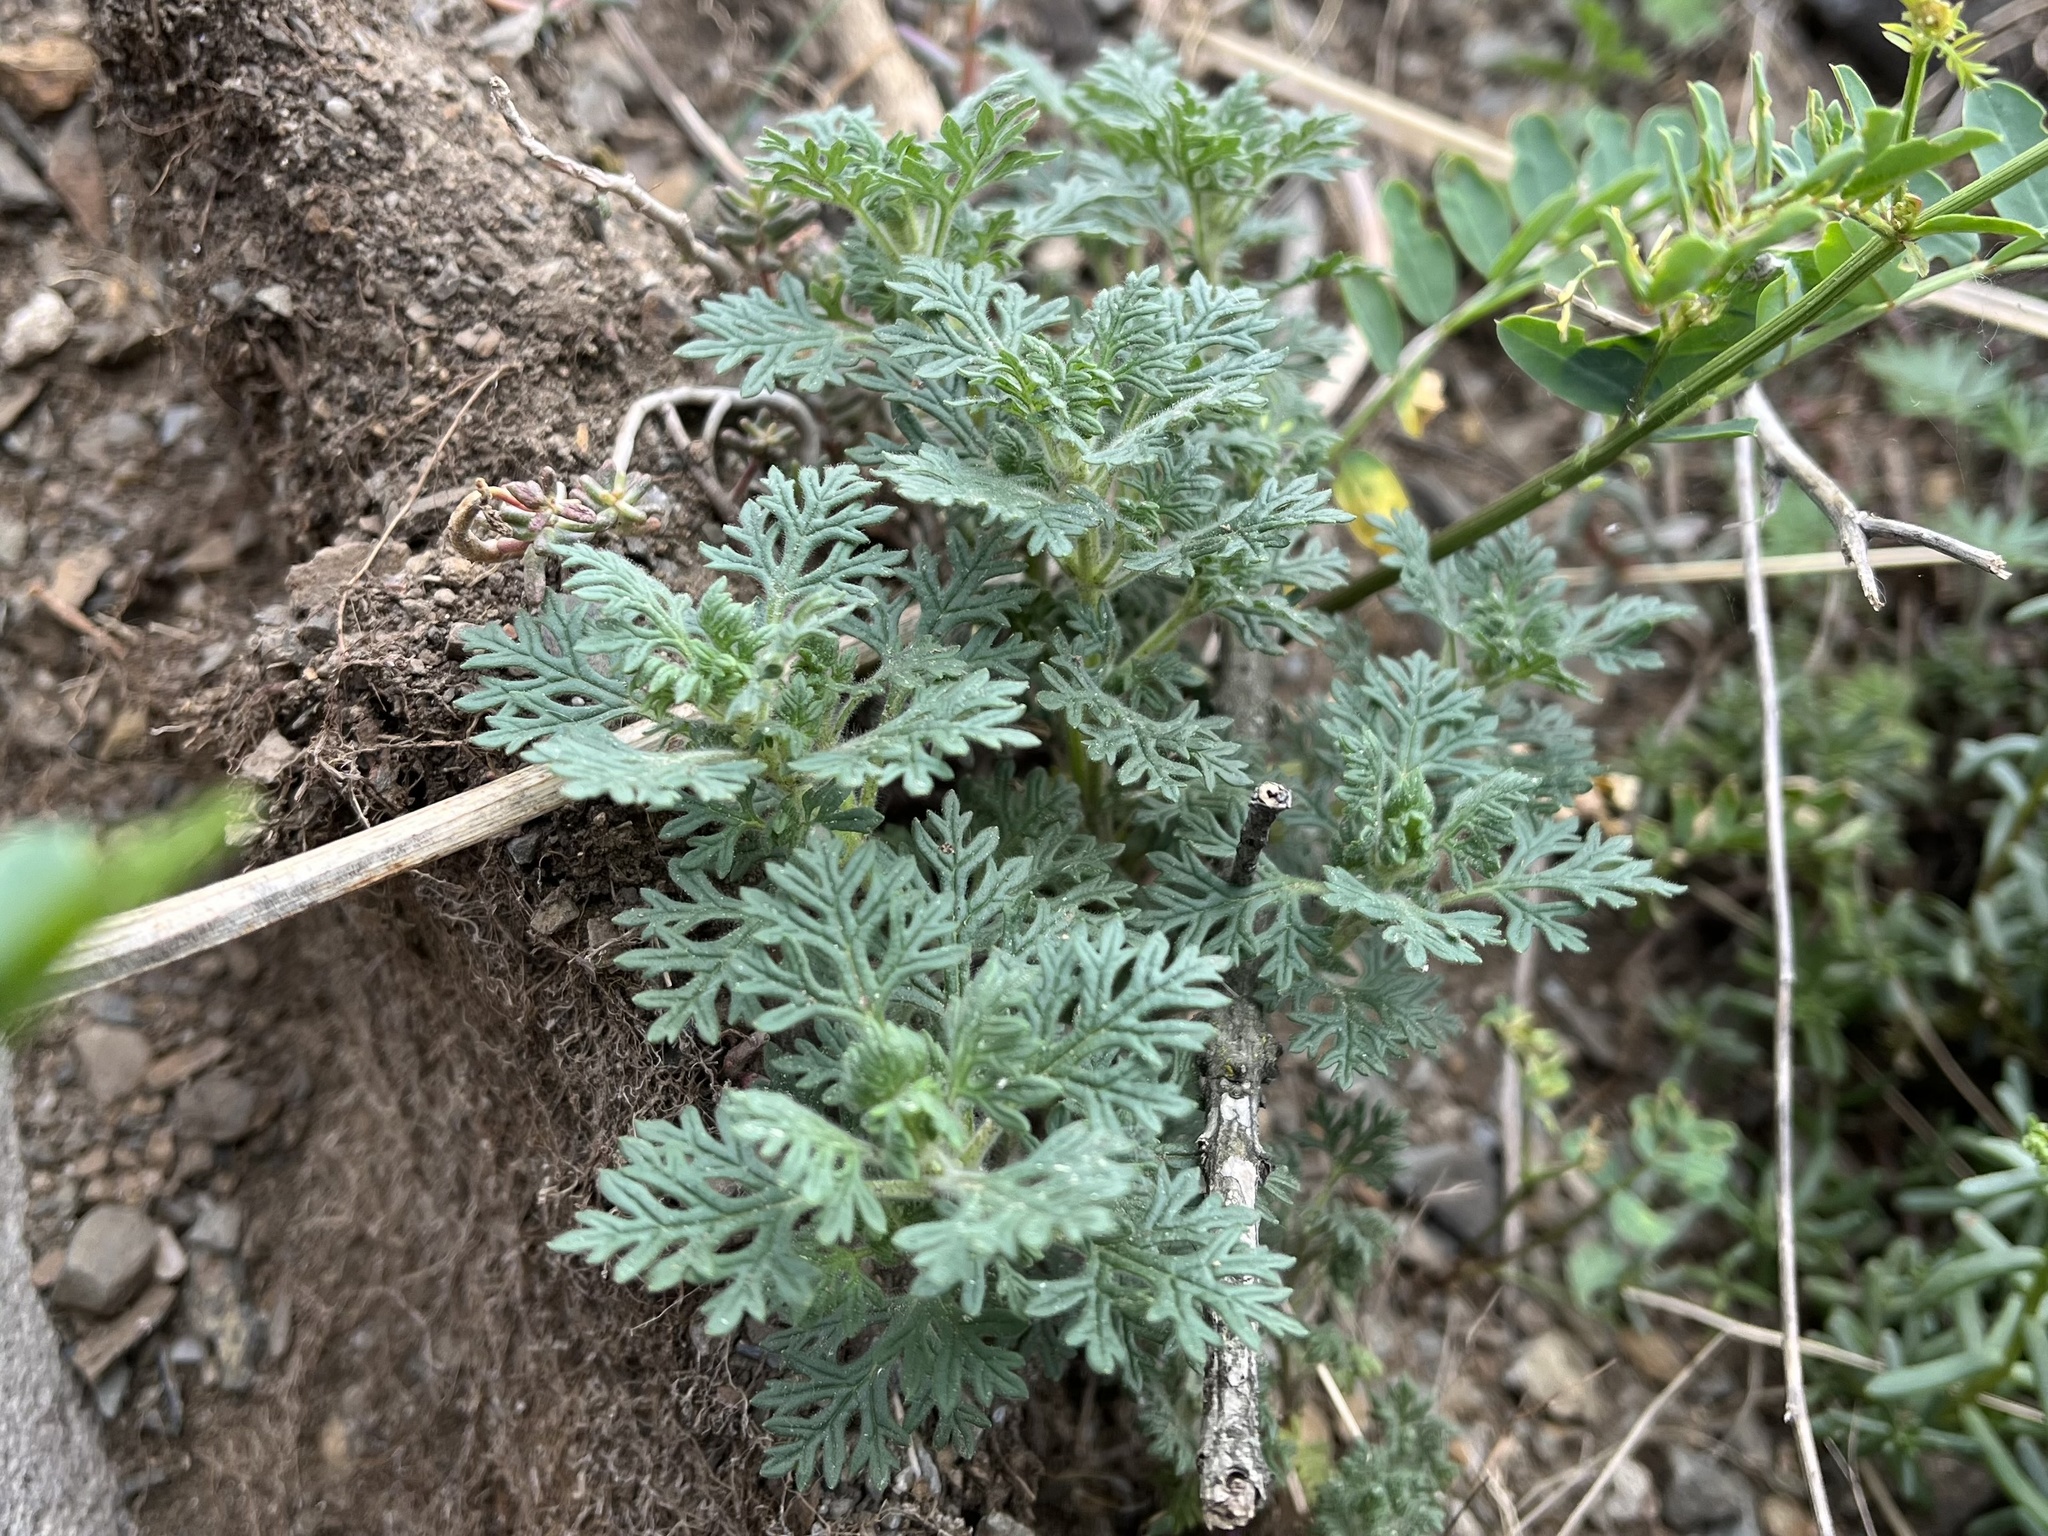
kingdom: Plantae
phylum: Tracheophyta
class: Magnoliopsida
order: Lamiales
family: Lamiaceae
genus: Teucrium
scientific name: Teucrium botrys
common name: Cut-leaved germander
